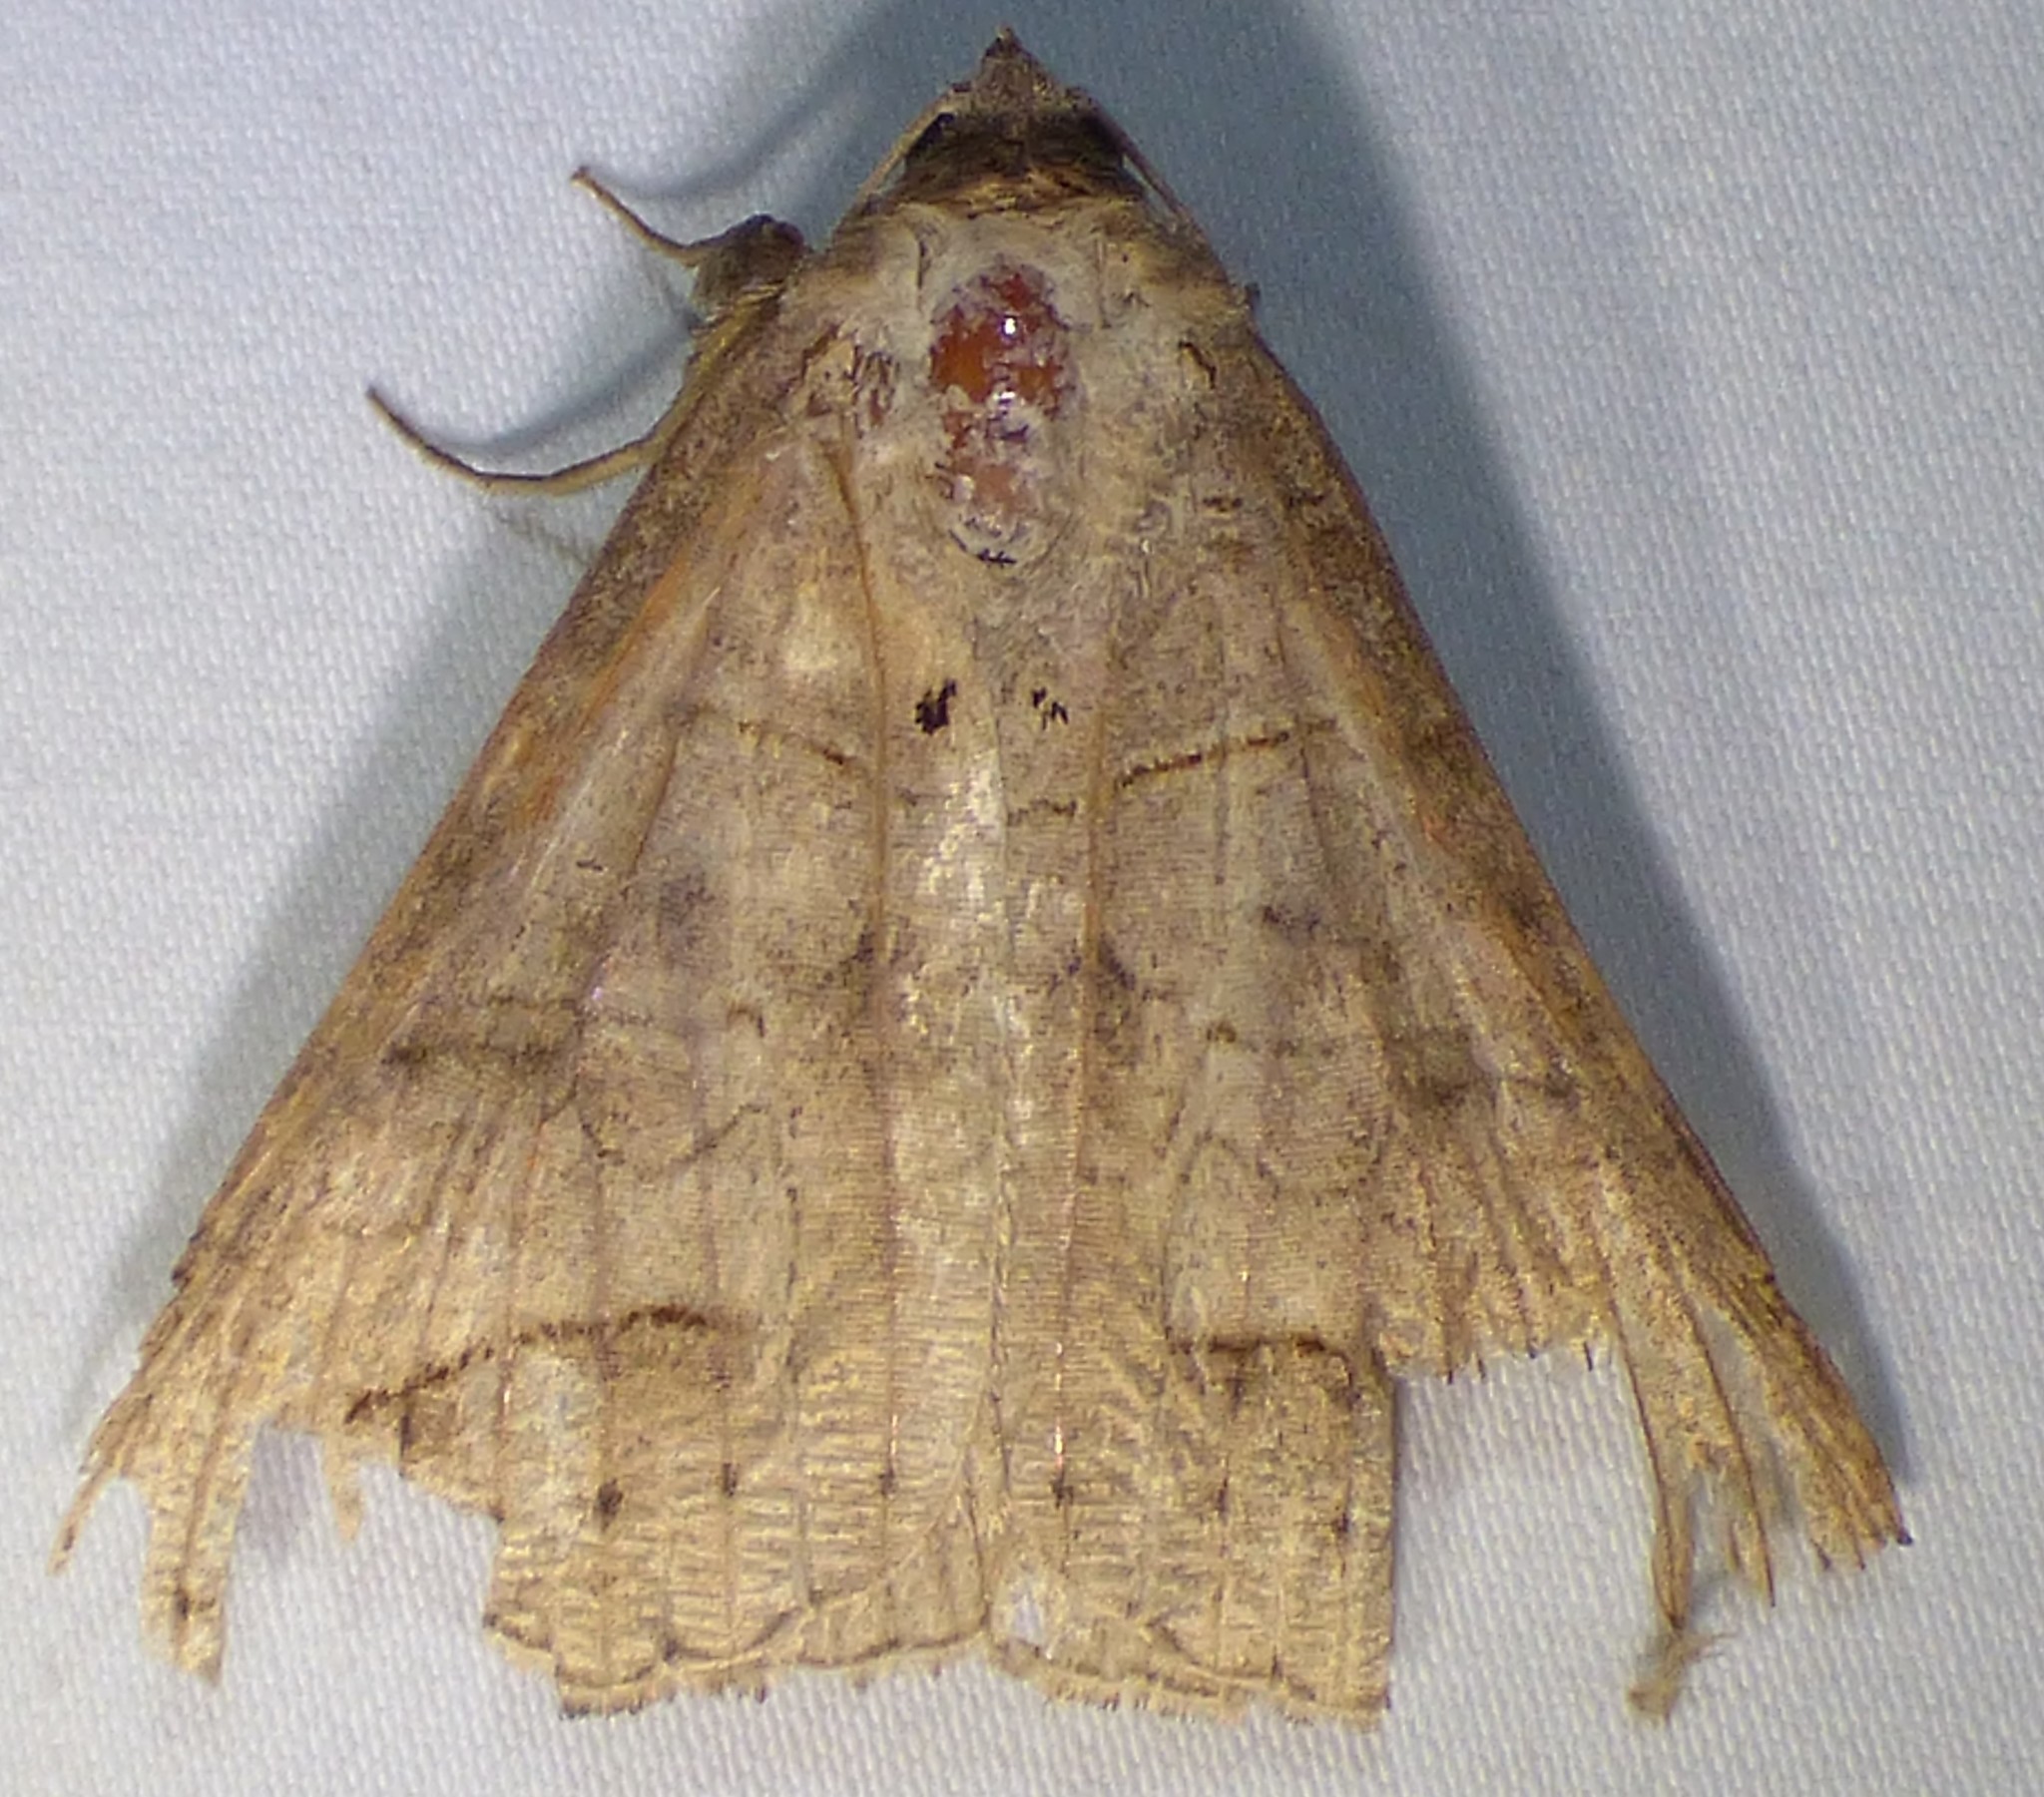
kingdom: Animalia
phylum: Arthropoda
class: Insecta
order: Lepidoptera
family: Erebidae
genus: Mocis
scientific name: Mocis marcida
